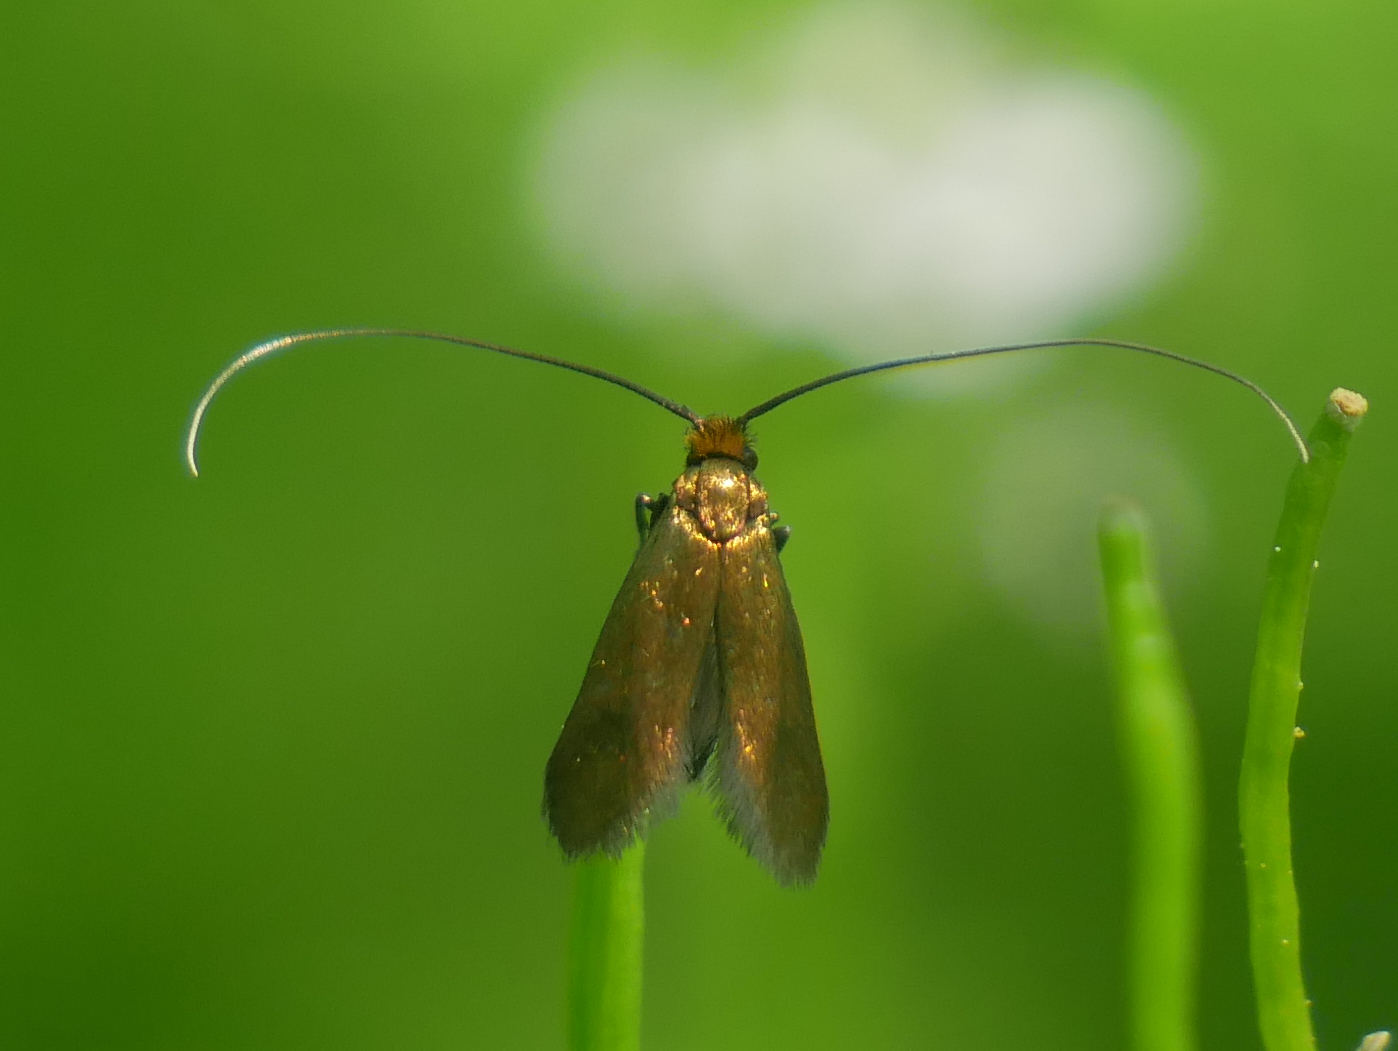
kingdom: Animalia
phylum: Arthropoda
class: Insecta
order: Lepidoptera
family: Adelidae
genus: Cauchas
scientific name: Cauchas rufimitrella
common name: Meadow long-horn
